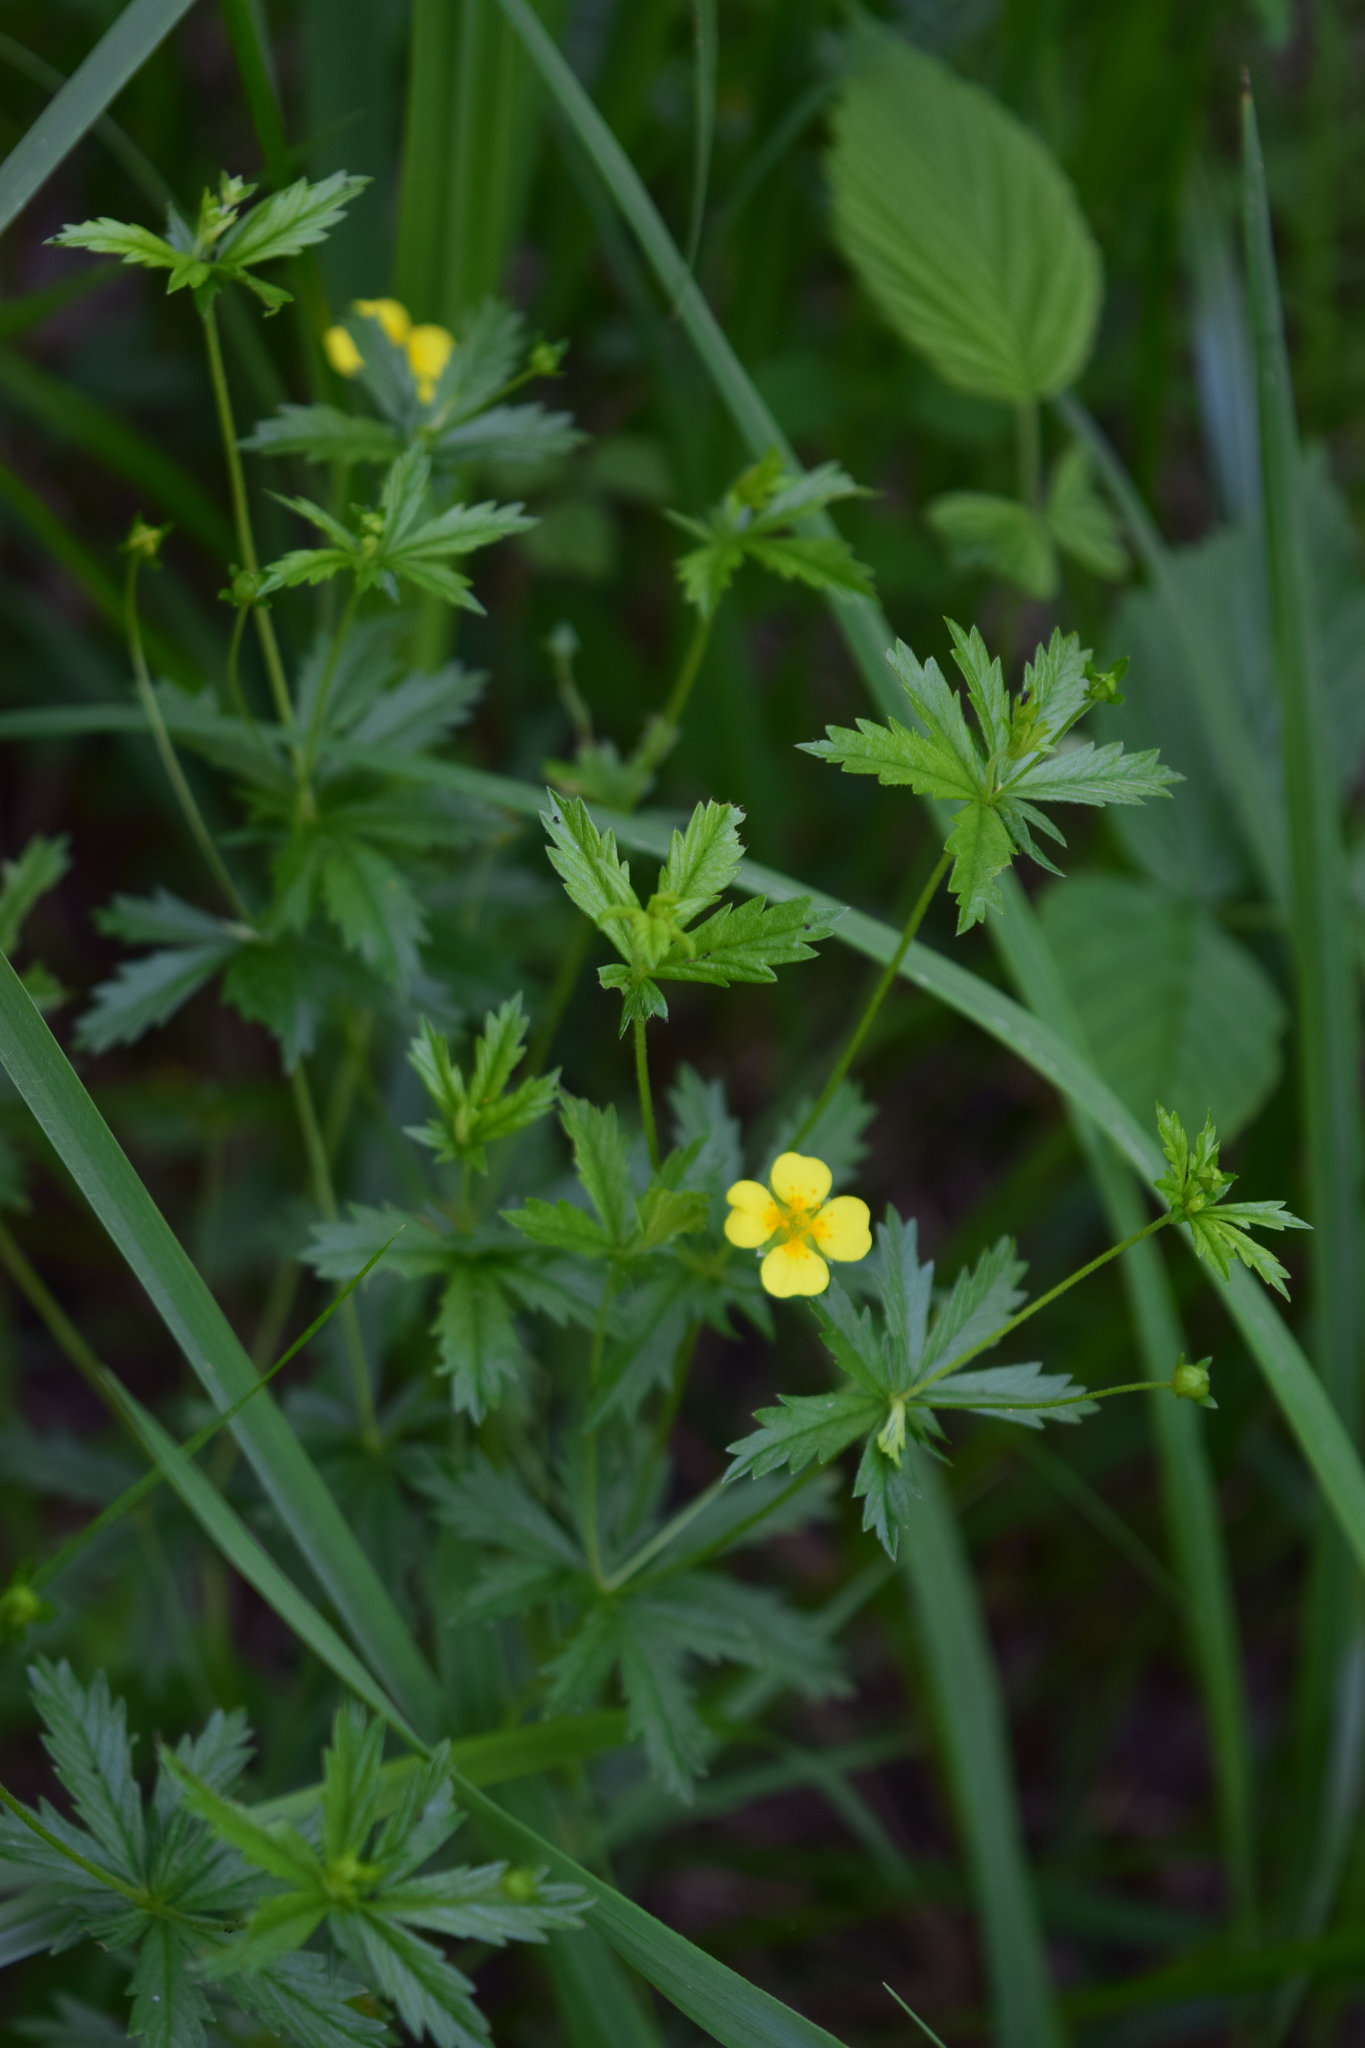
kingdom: Plantae
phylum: Tracheophyta
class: Magnoliopsida
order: Rosales
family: Rosaceae
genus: Potentilla
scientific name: Potentilla erecta
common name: Tormentil
